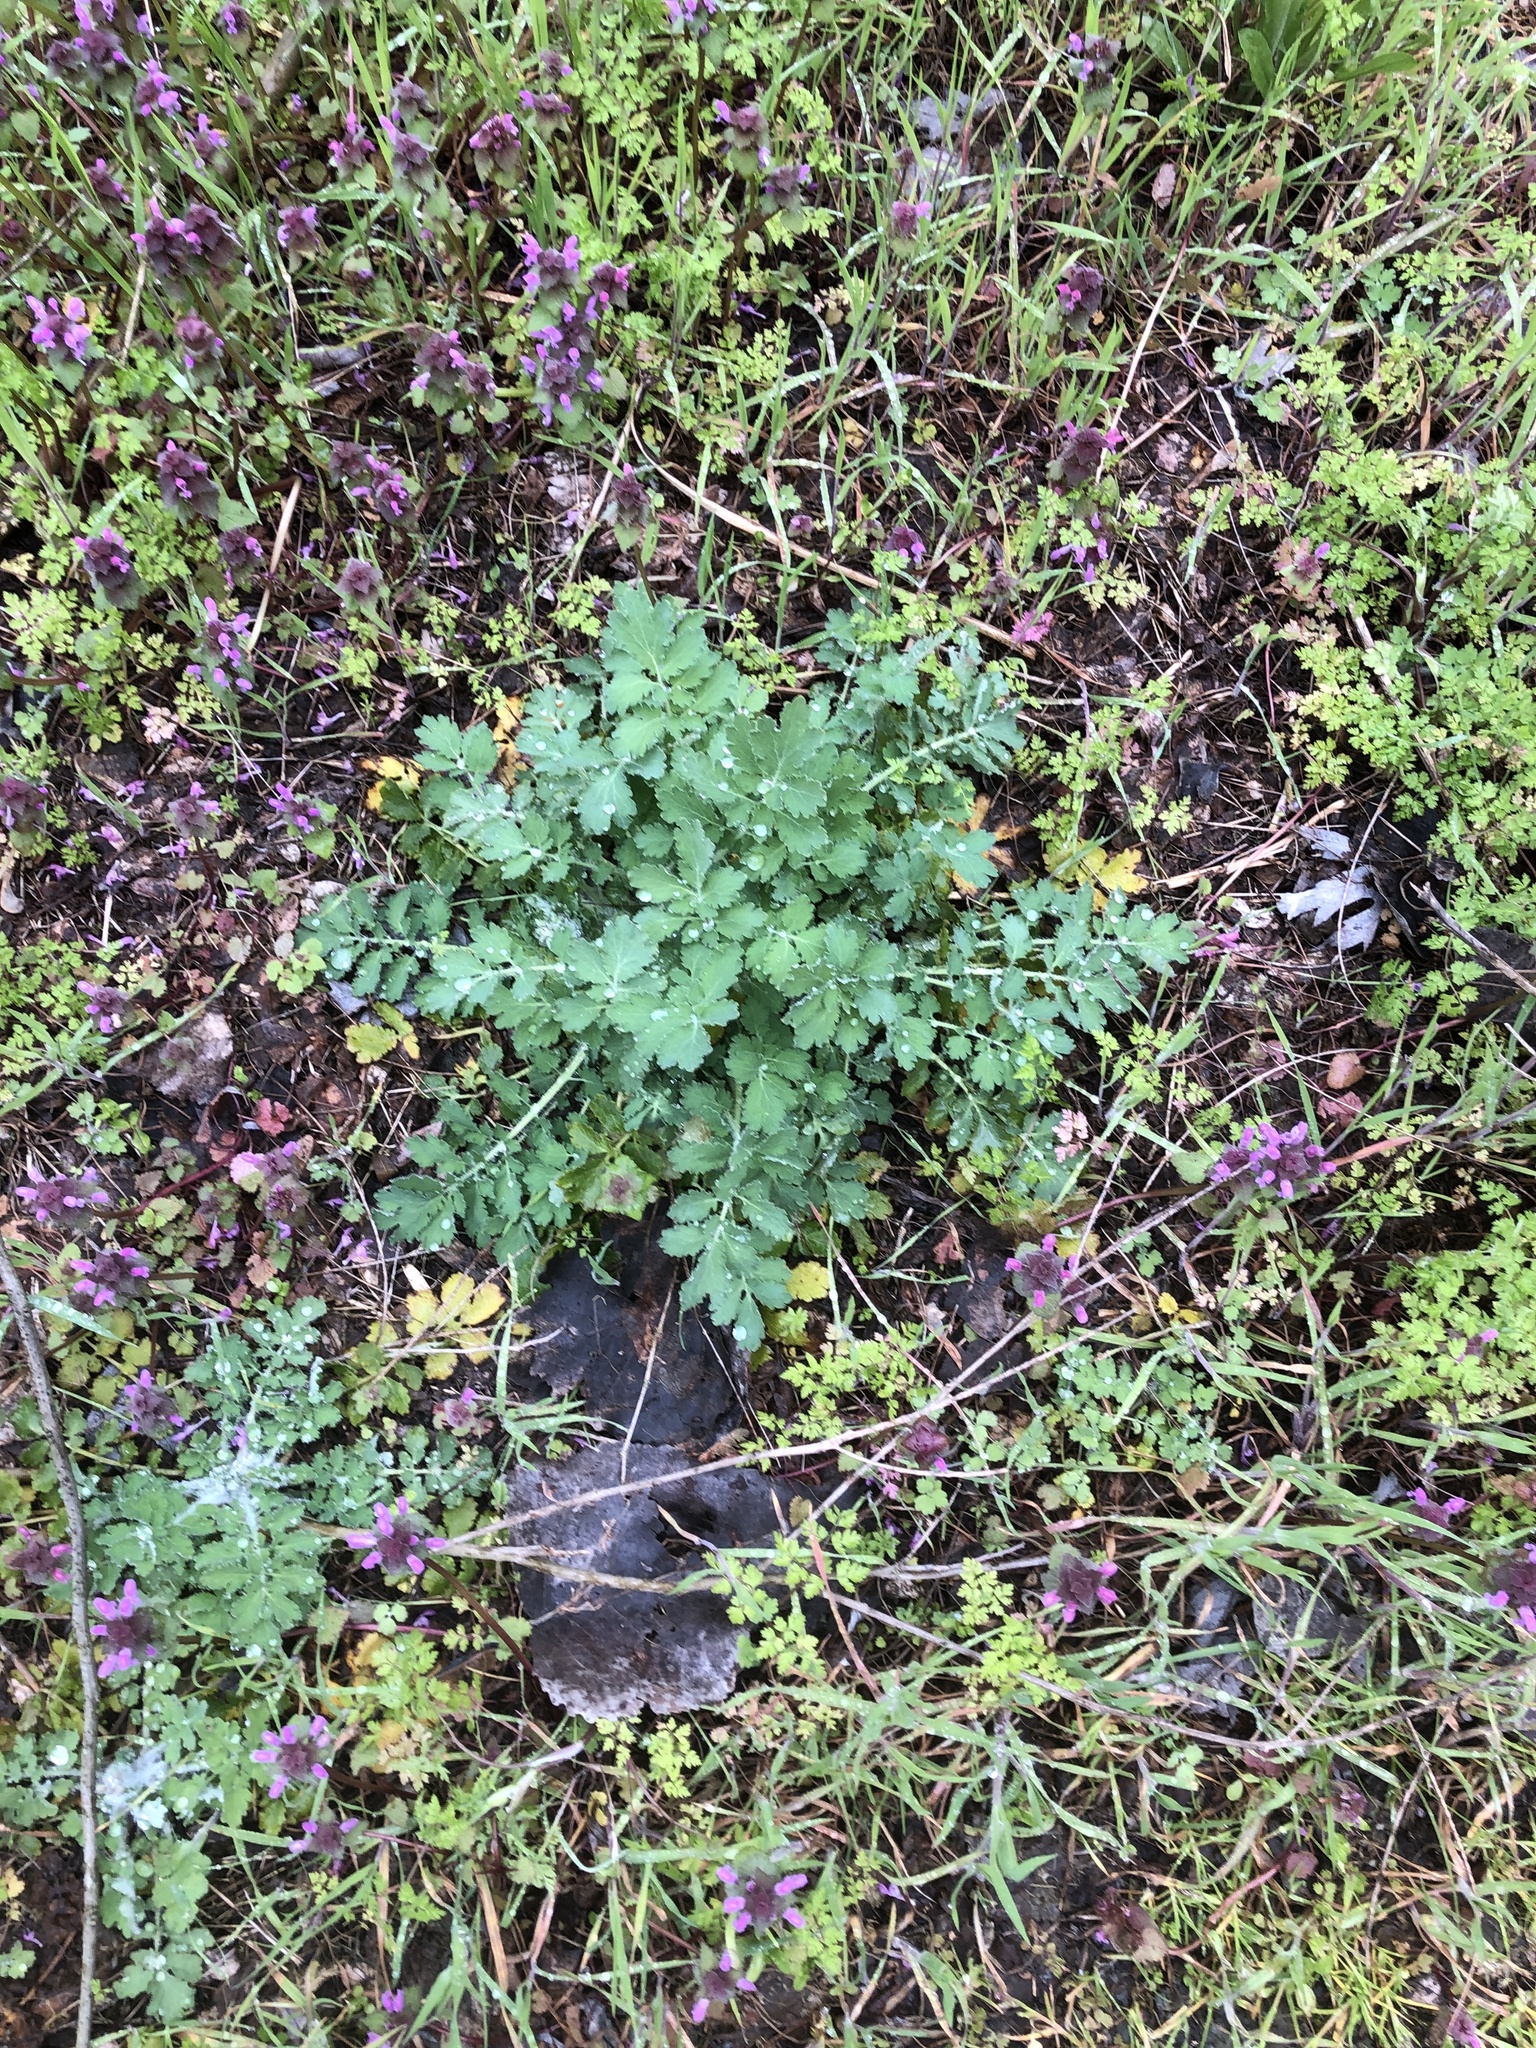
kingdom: Plantae
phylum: Tracheophyta
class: Magnoliopsida
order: Ranunculales
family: Papaveraceae
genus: Chelidonium
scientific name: Chelidonium majus
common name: Greater celandine
